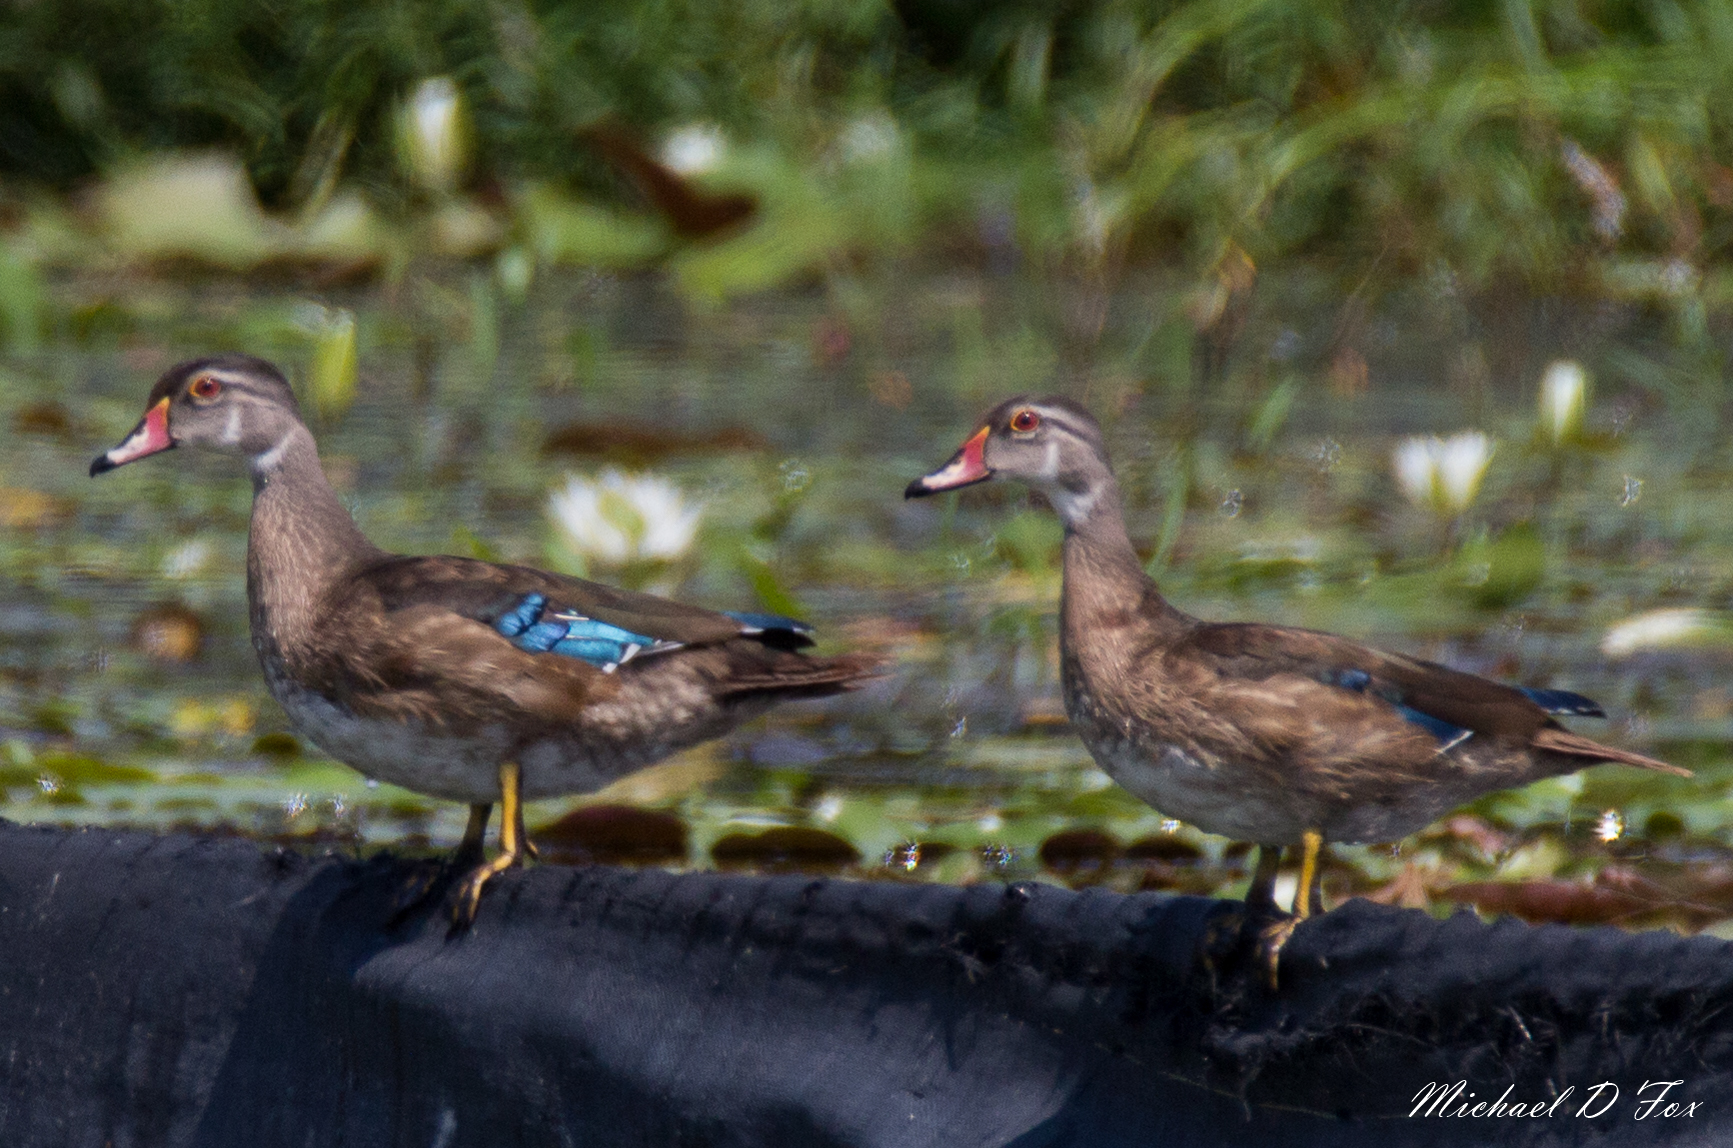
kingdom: Animalia
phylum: Chordata
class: Aves
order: Anseriformes
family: Anatidae
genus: Aix
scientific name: Aix sponsa
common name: Wood duck
